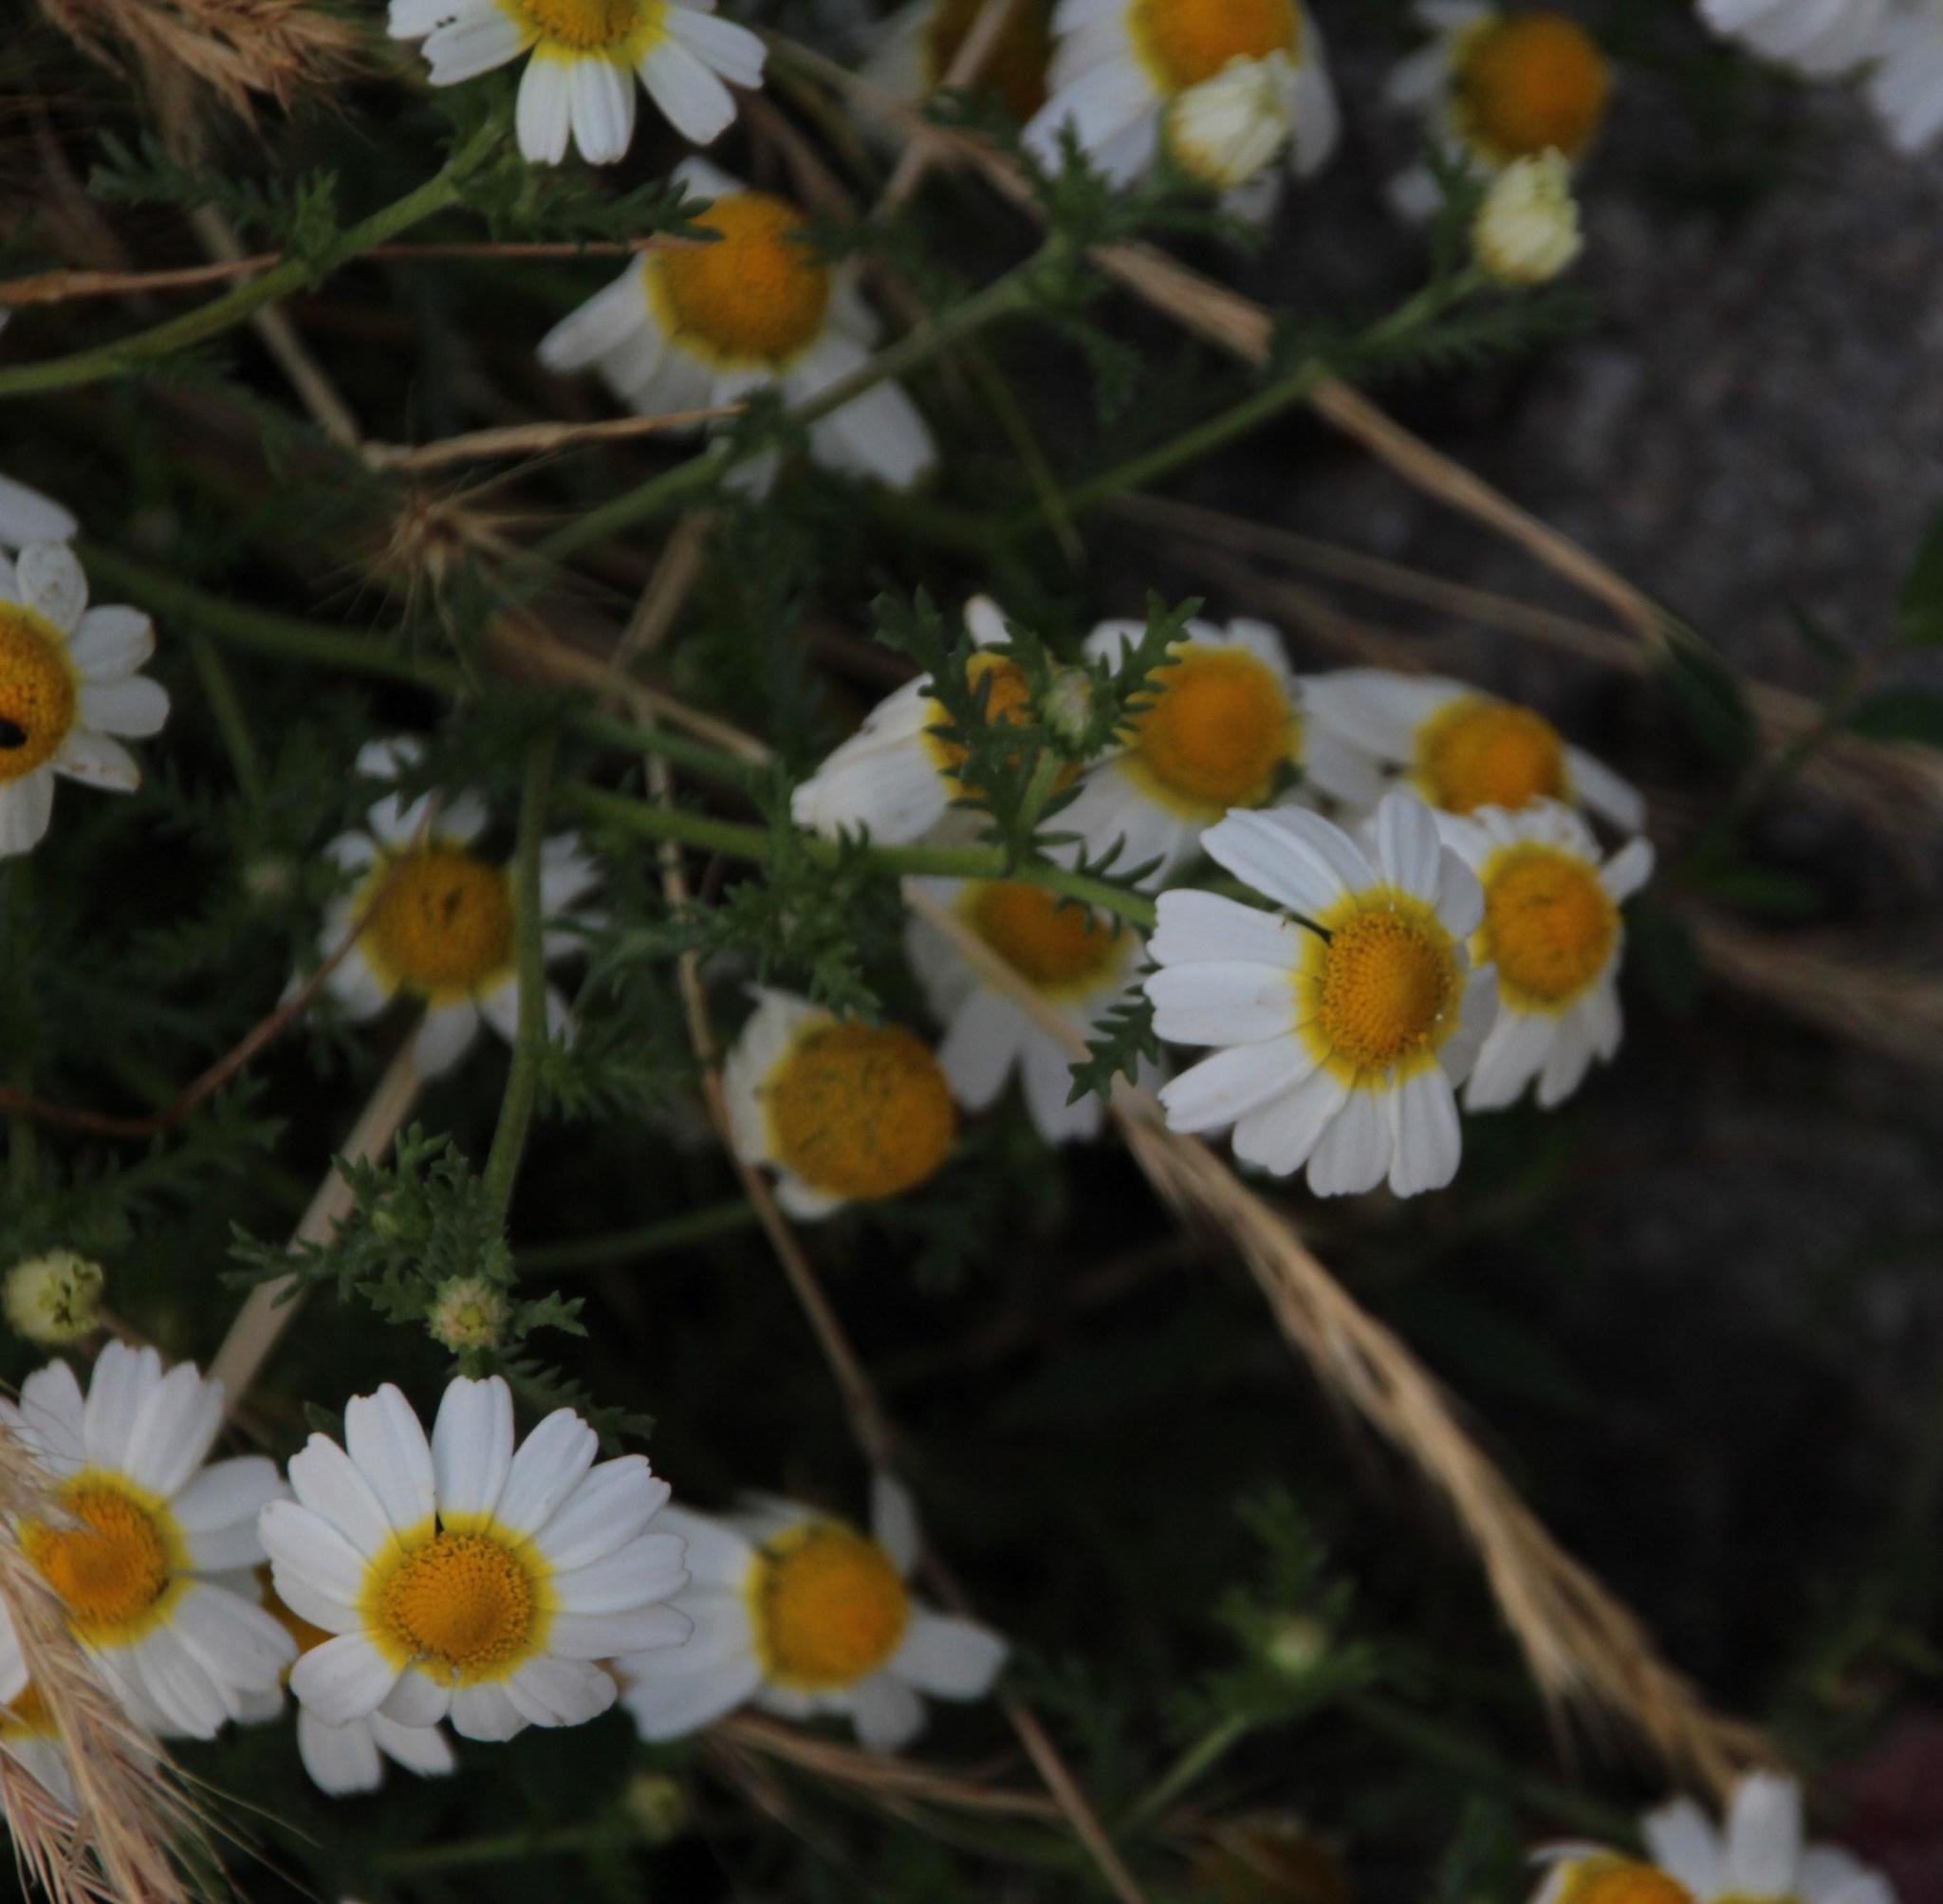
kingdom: Plantae
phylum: Tracheophyta
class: Magnoliopsida
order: Asterales
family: Asteraceae
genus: Cladanthus
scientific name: Cladanthus mixtus
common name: Weedy dogfennel
